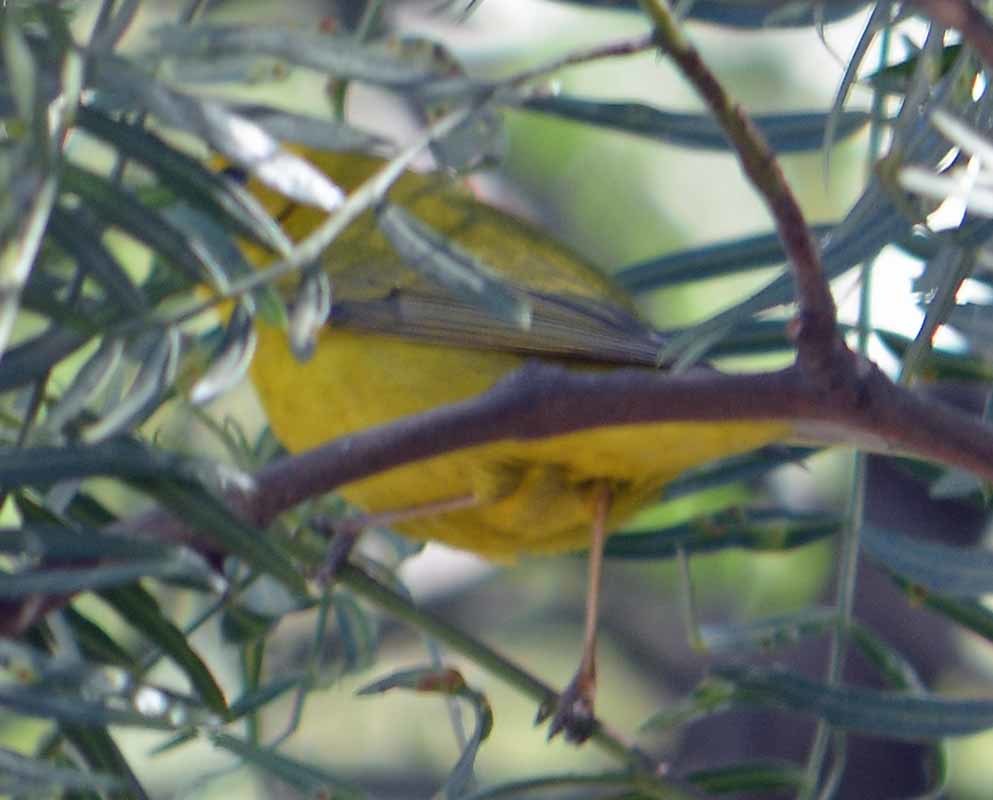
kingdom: Animalia
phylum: Chordata
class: Aves
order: Passeriformes
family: Parulidae
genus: Cardellina
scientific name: Cardellina pusilla
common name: Wilson's warbler
